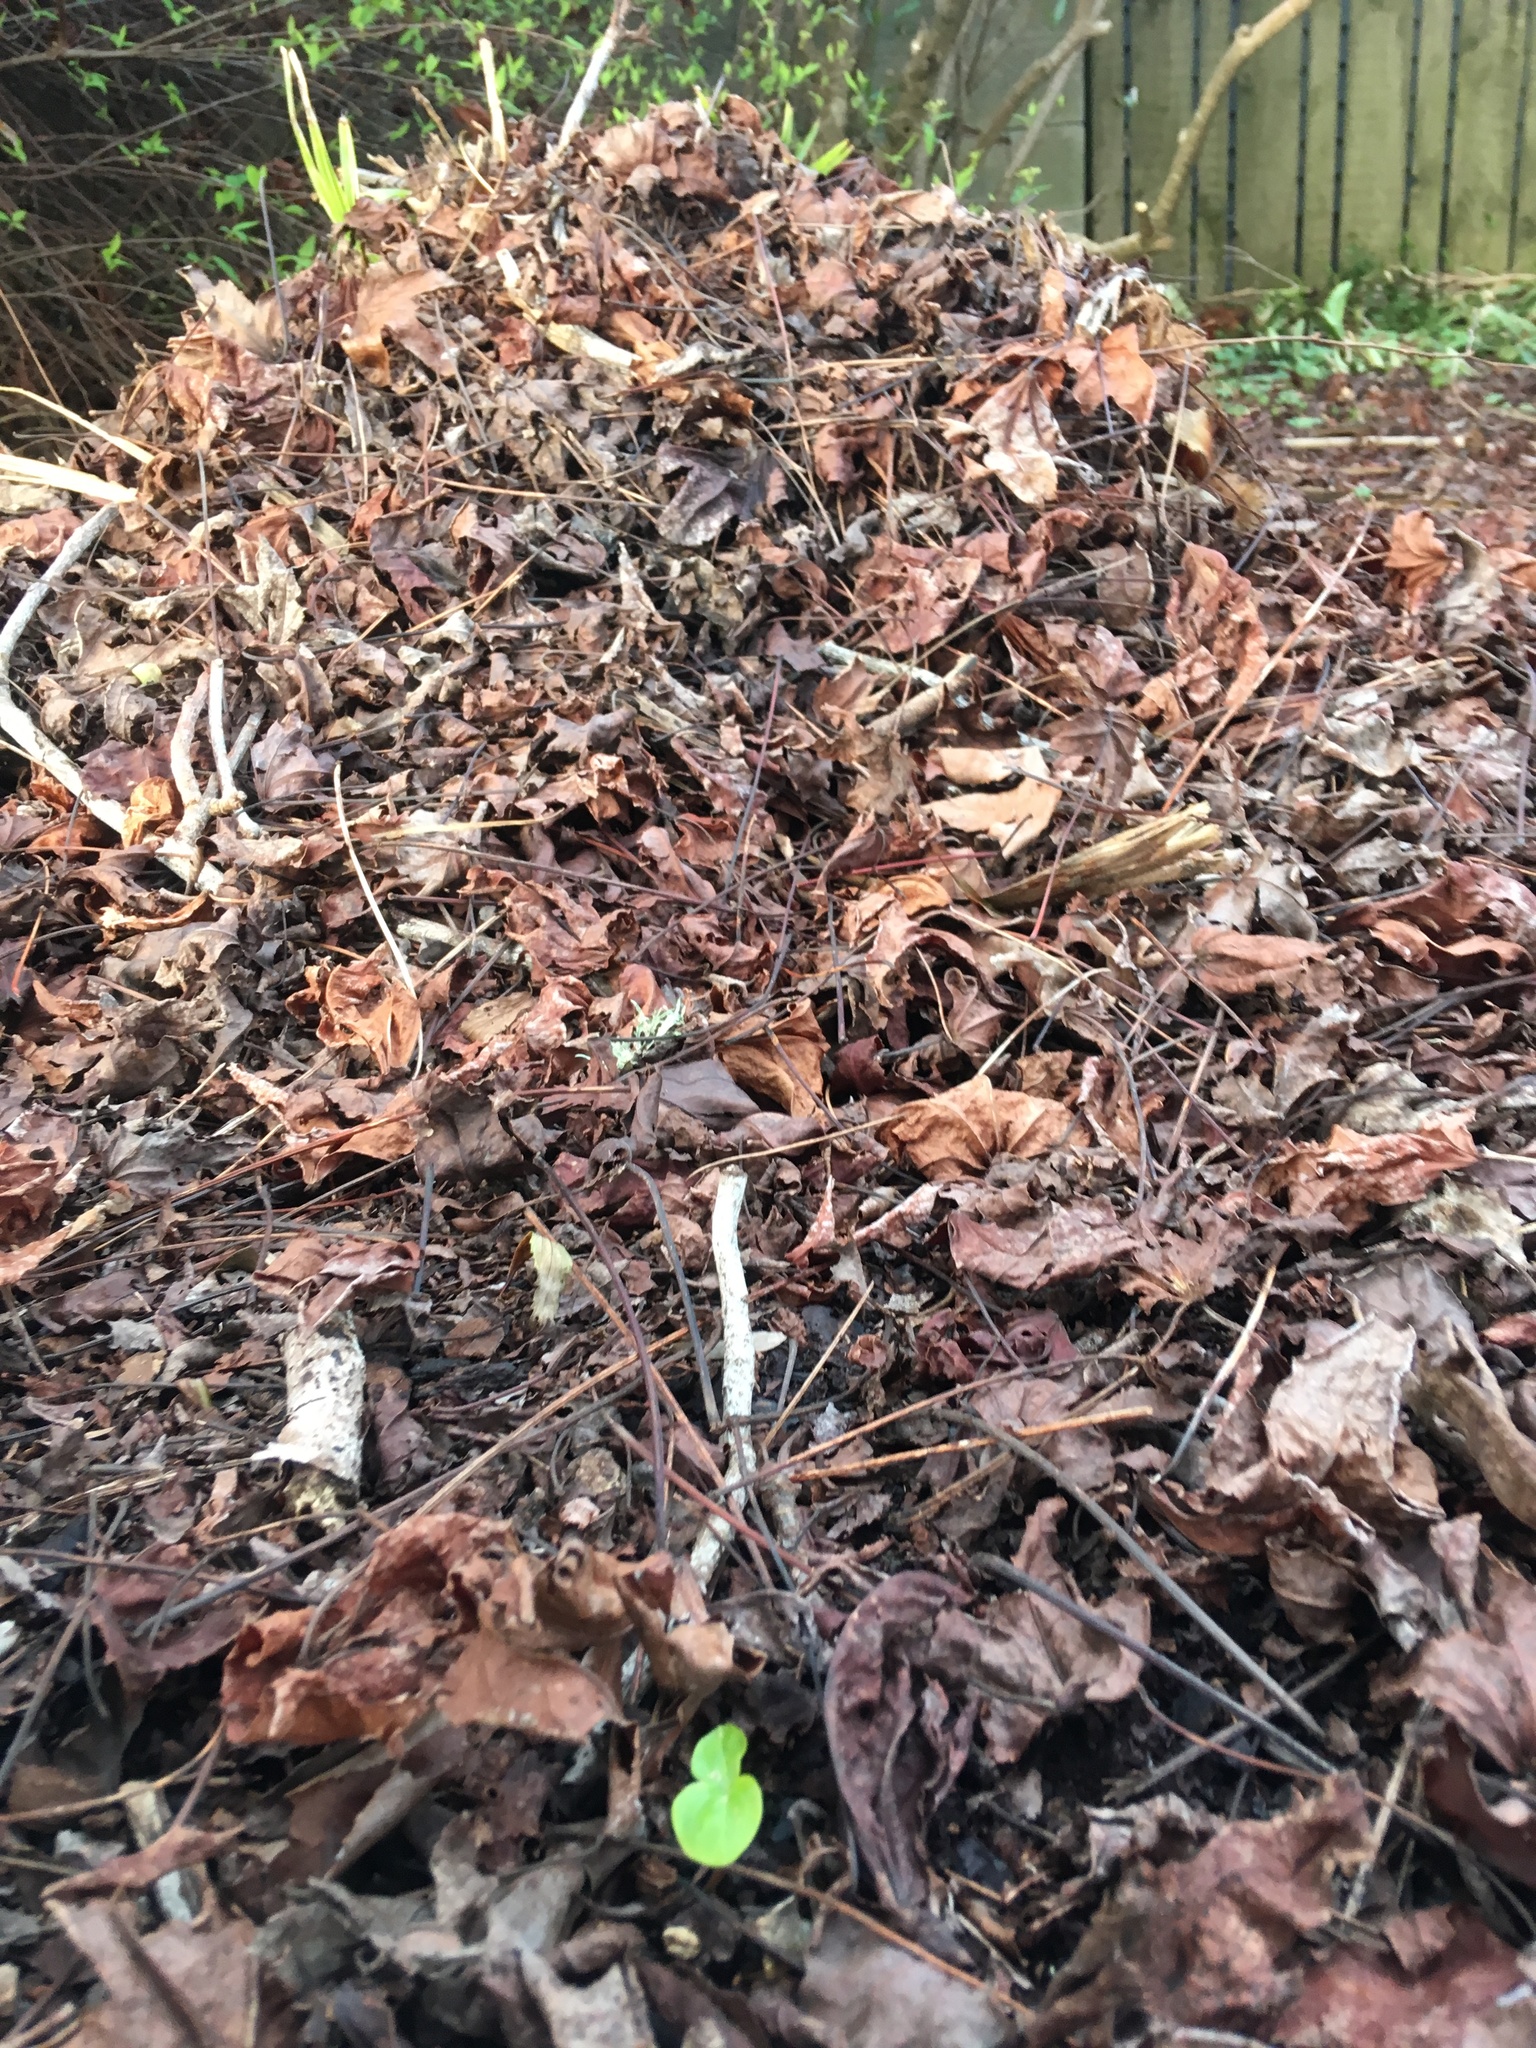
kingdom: Plantae
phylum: Tracheophyta
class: Magnoliopsida
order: Apiales
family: Araliaceae
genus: Hedera
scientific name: Hedera helix
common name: Ivy
